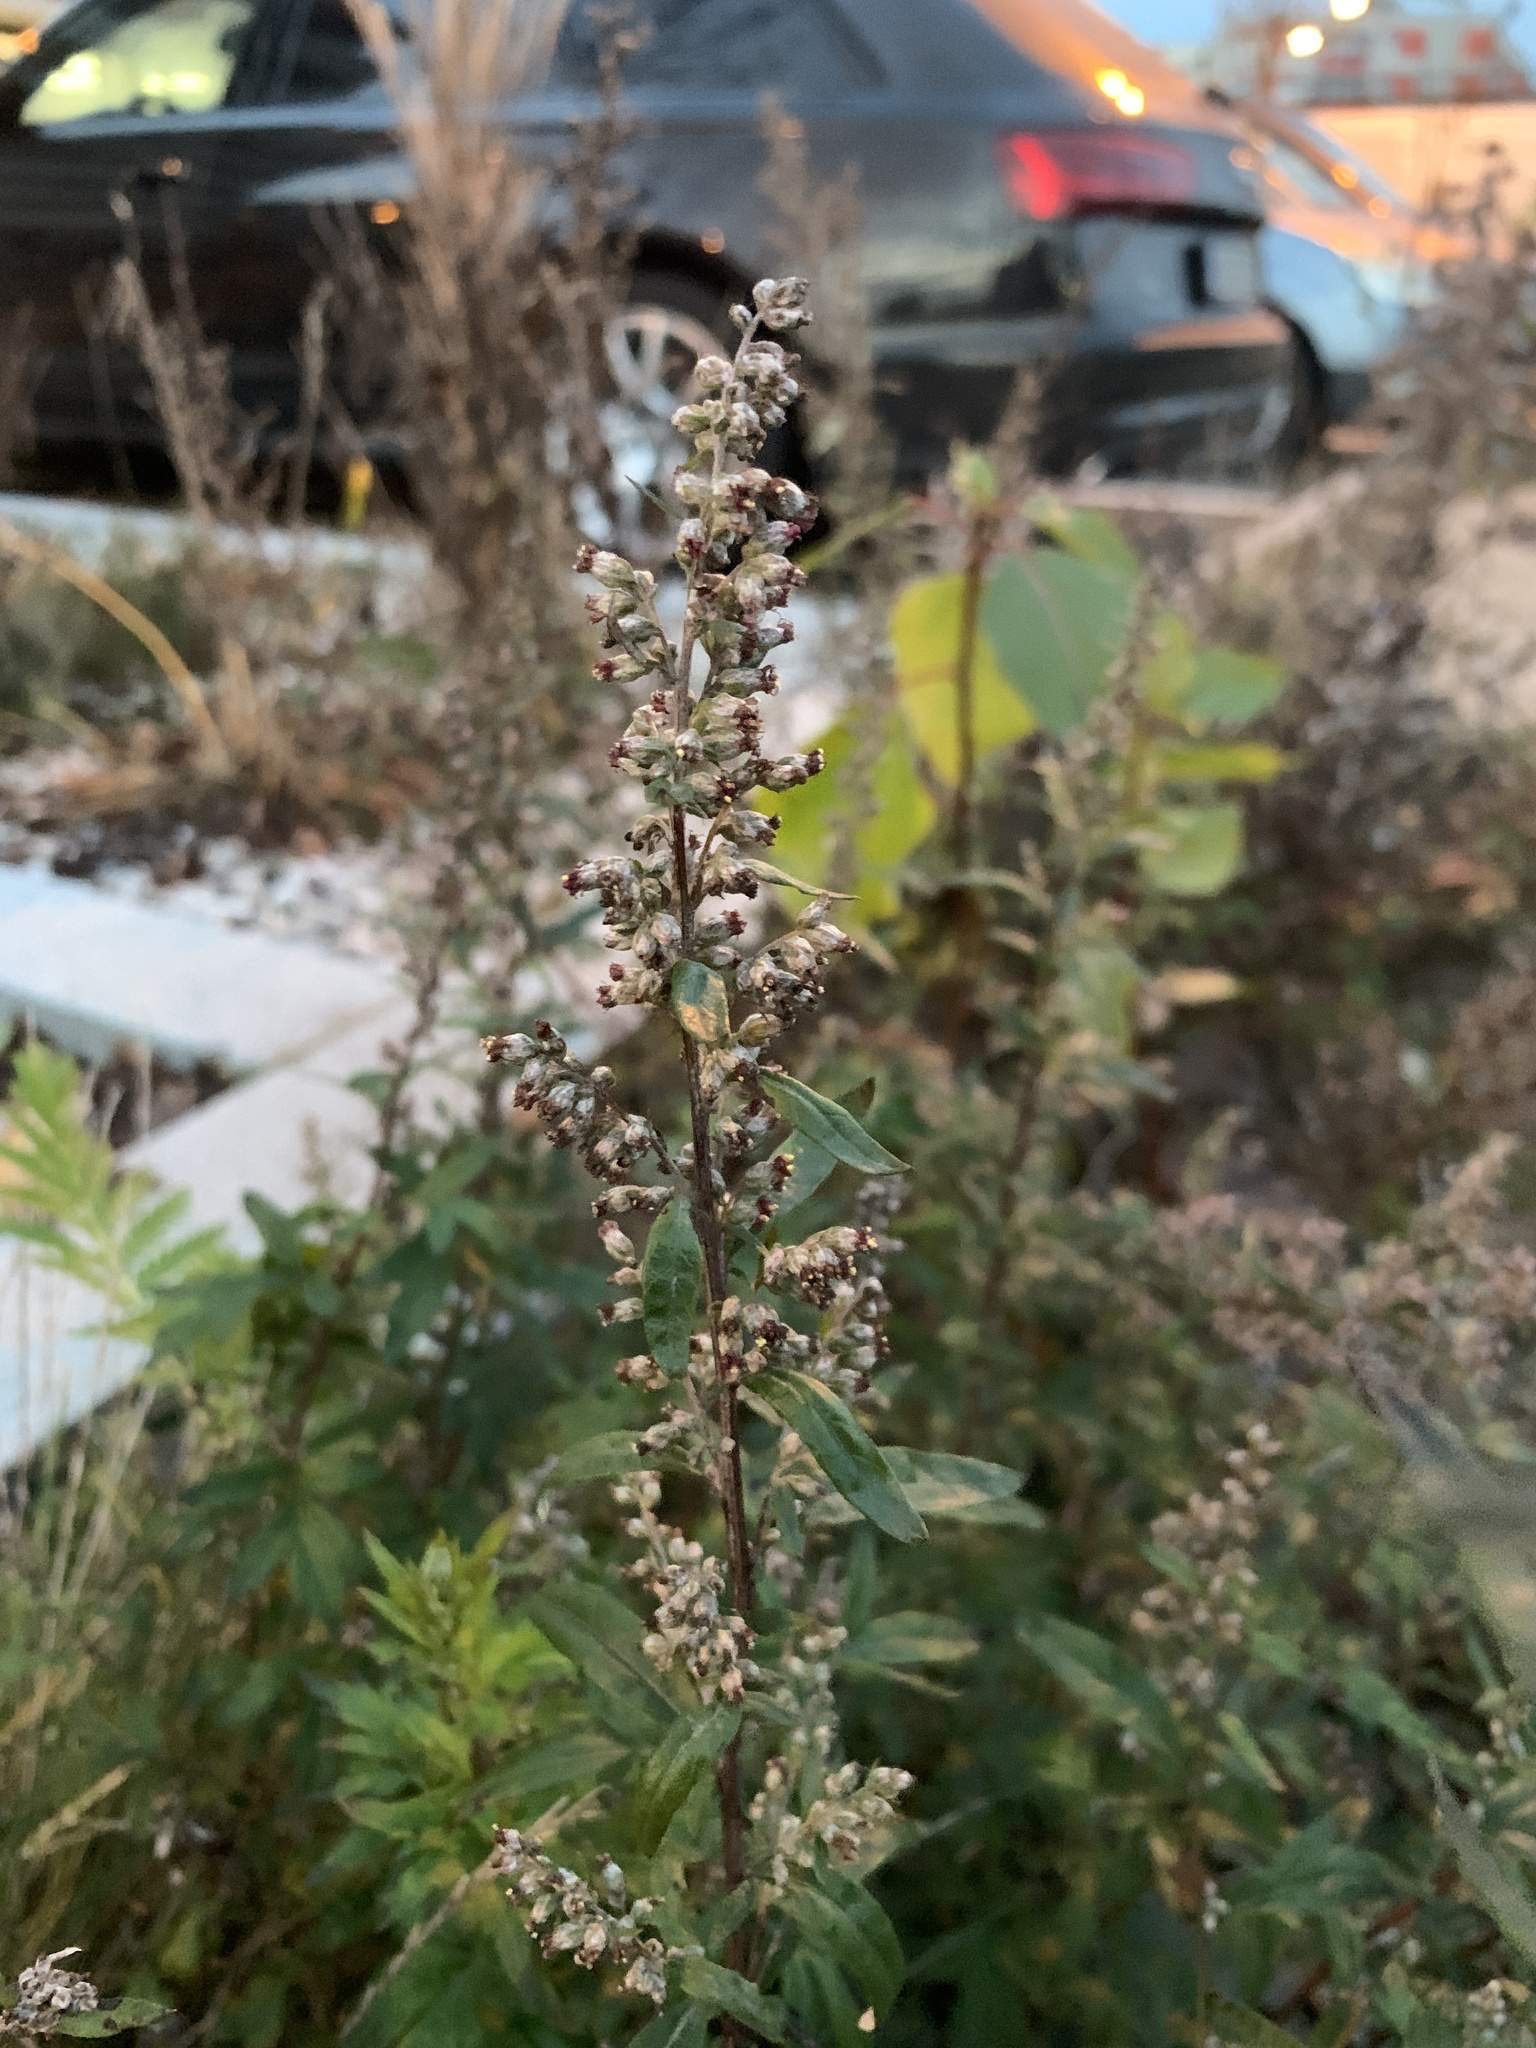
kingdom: Plantae
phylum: Tracheophyta
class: Magnoliopsida
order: Asterales
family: Asteraceae
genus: Artemisia
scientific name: Artemisia vulgaris
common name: Mugwort
